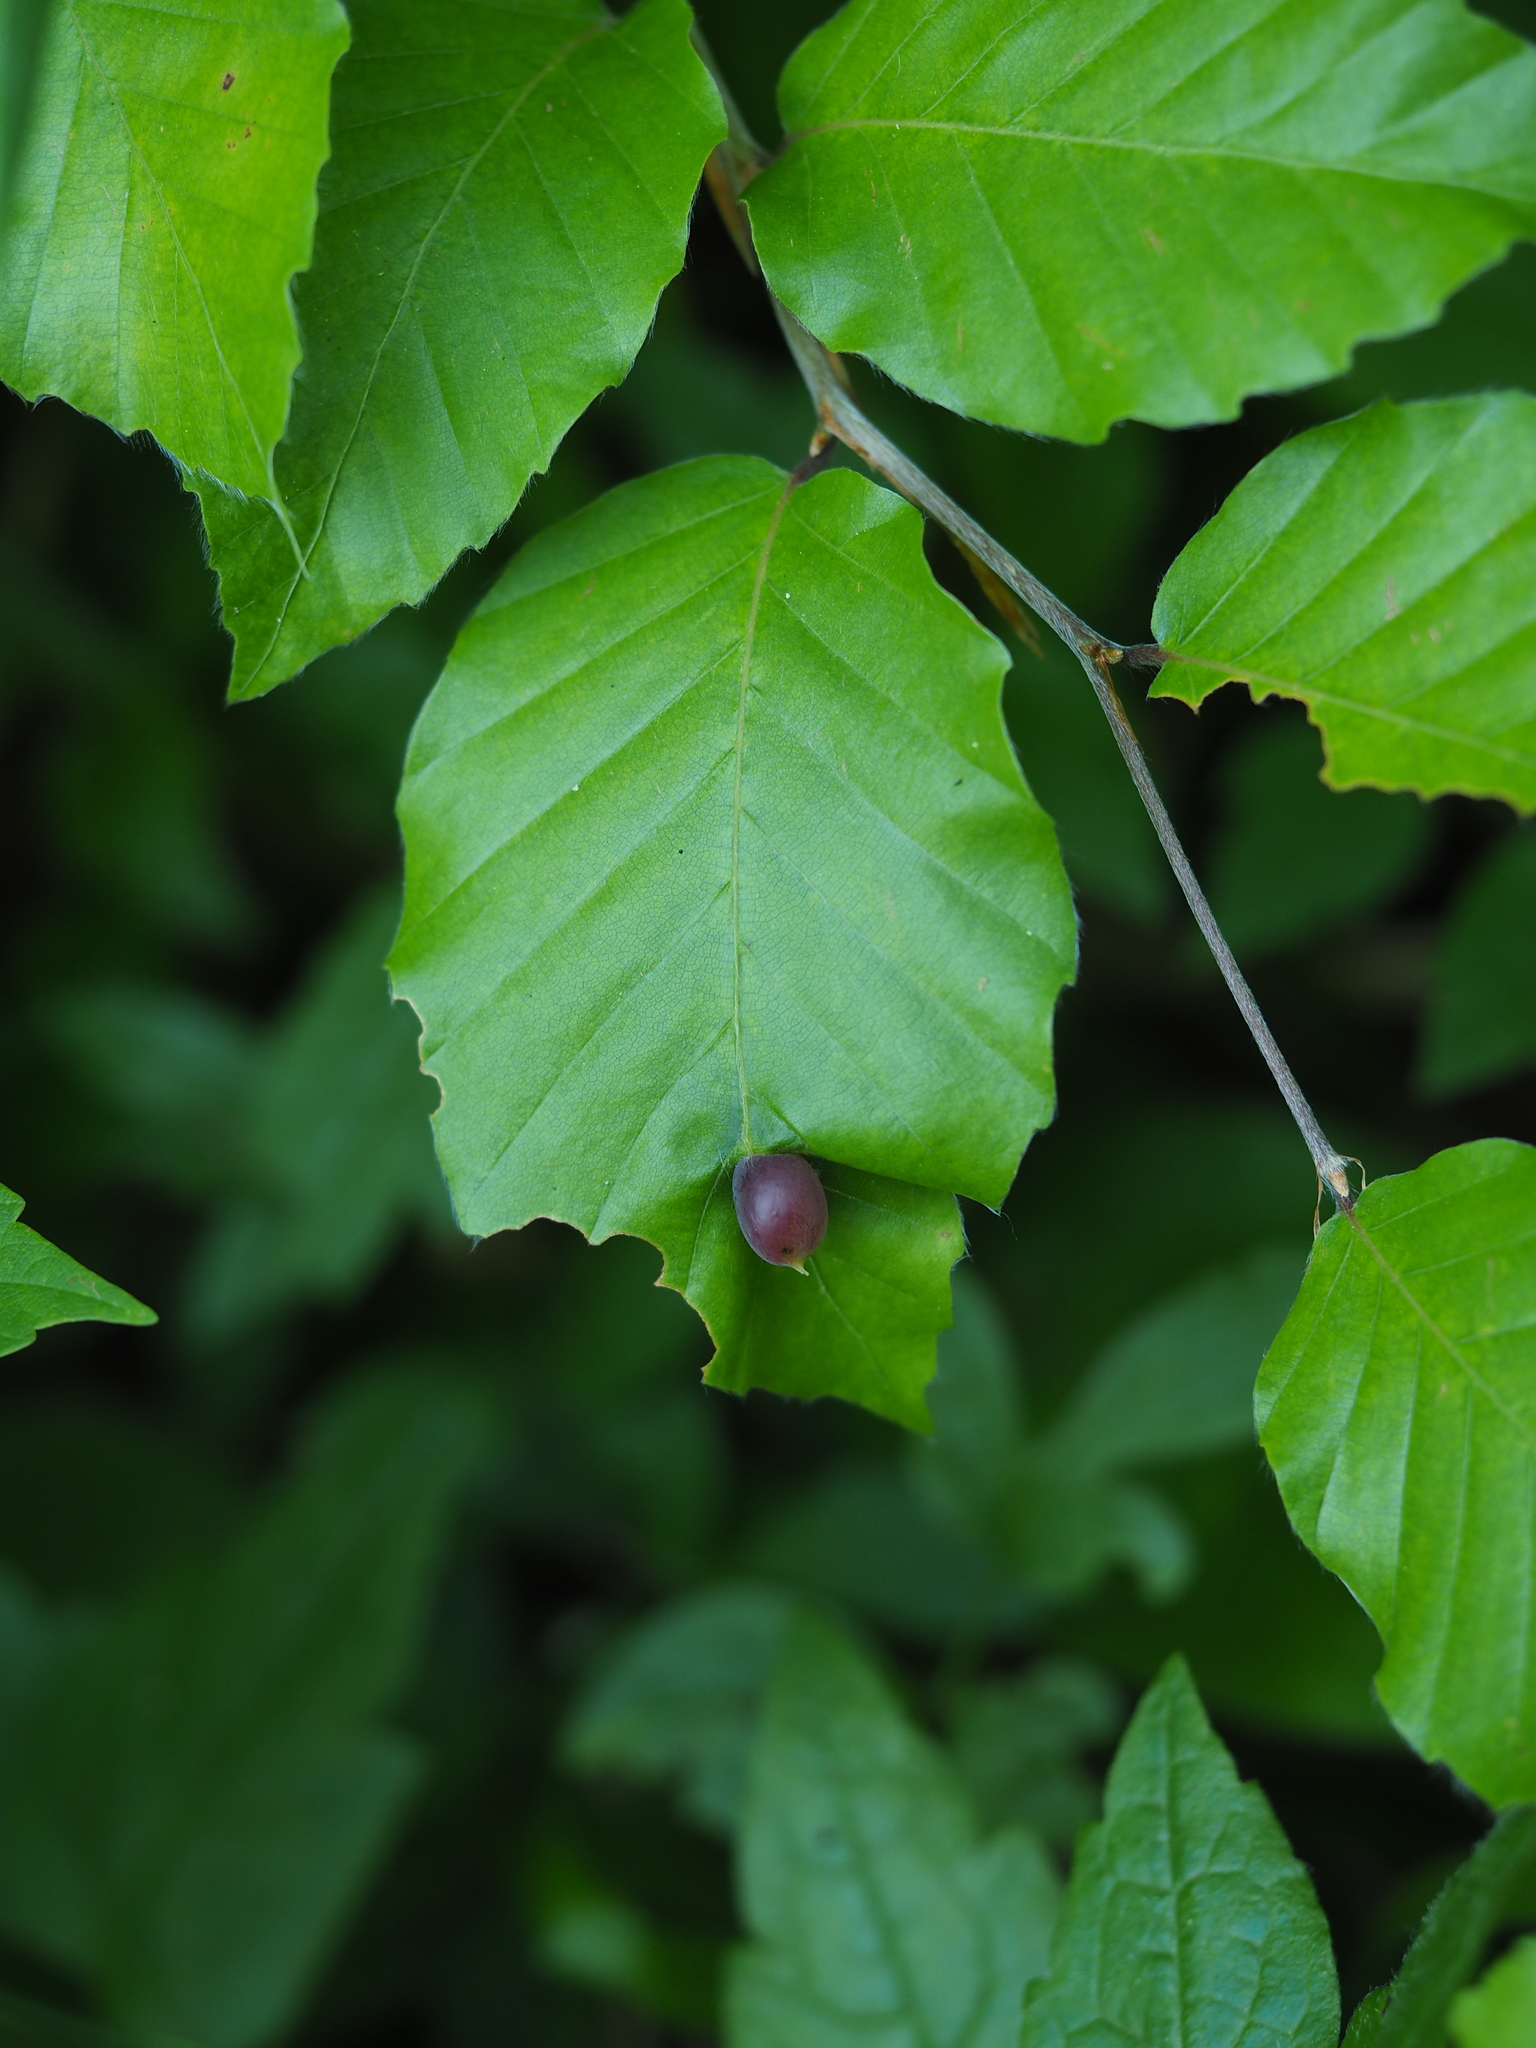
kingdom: Plantae
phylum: Tracheophyta
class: Magnoliopsida
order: Fagales
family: Fagaceae
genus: Fagus
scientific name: Fagus sylvatica
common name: Beech
